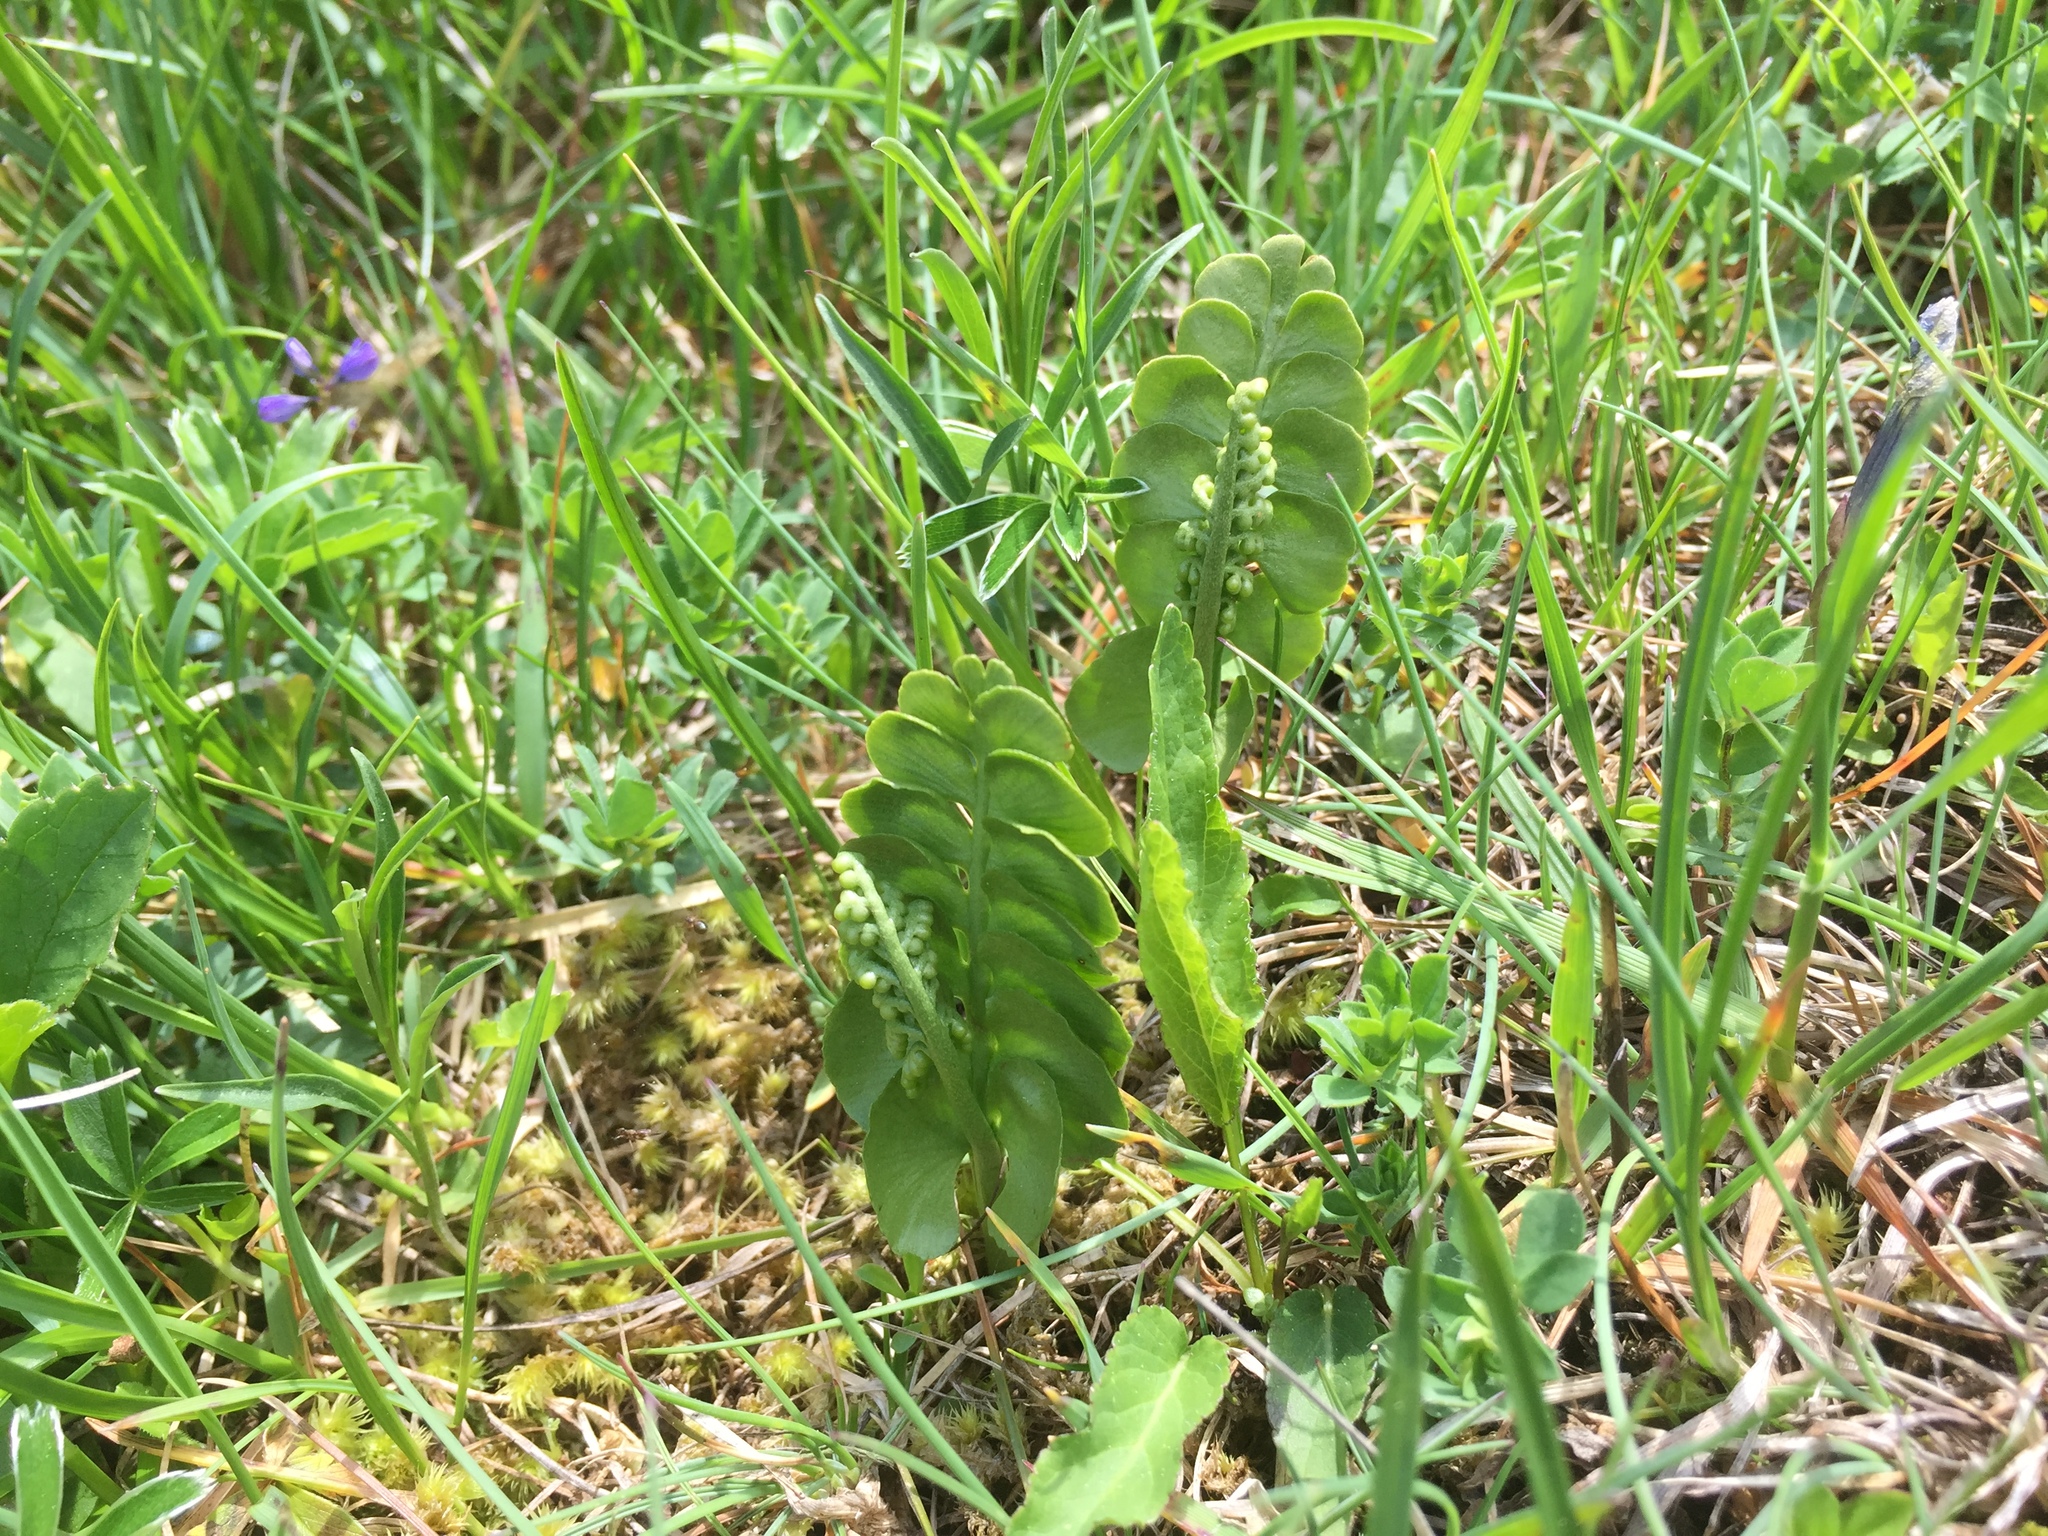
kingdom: Plantae
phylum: Tracheophyta
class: Polypodiopsida
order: Ophioglossales
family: Ophioglossaceae
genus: Botrychium
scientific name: Botrychium lunaria
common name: Moonwort
